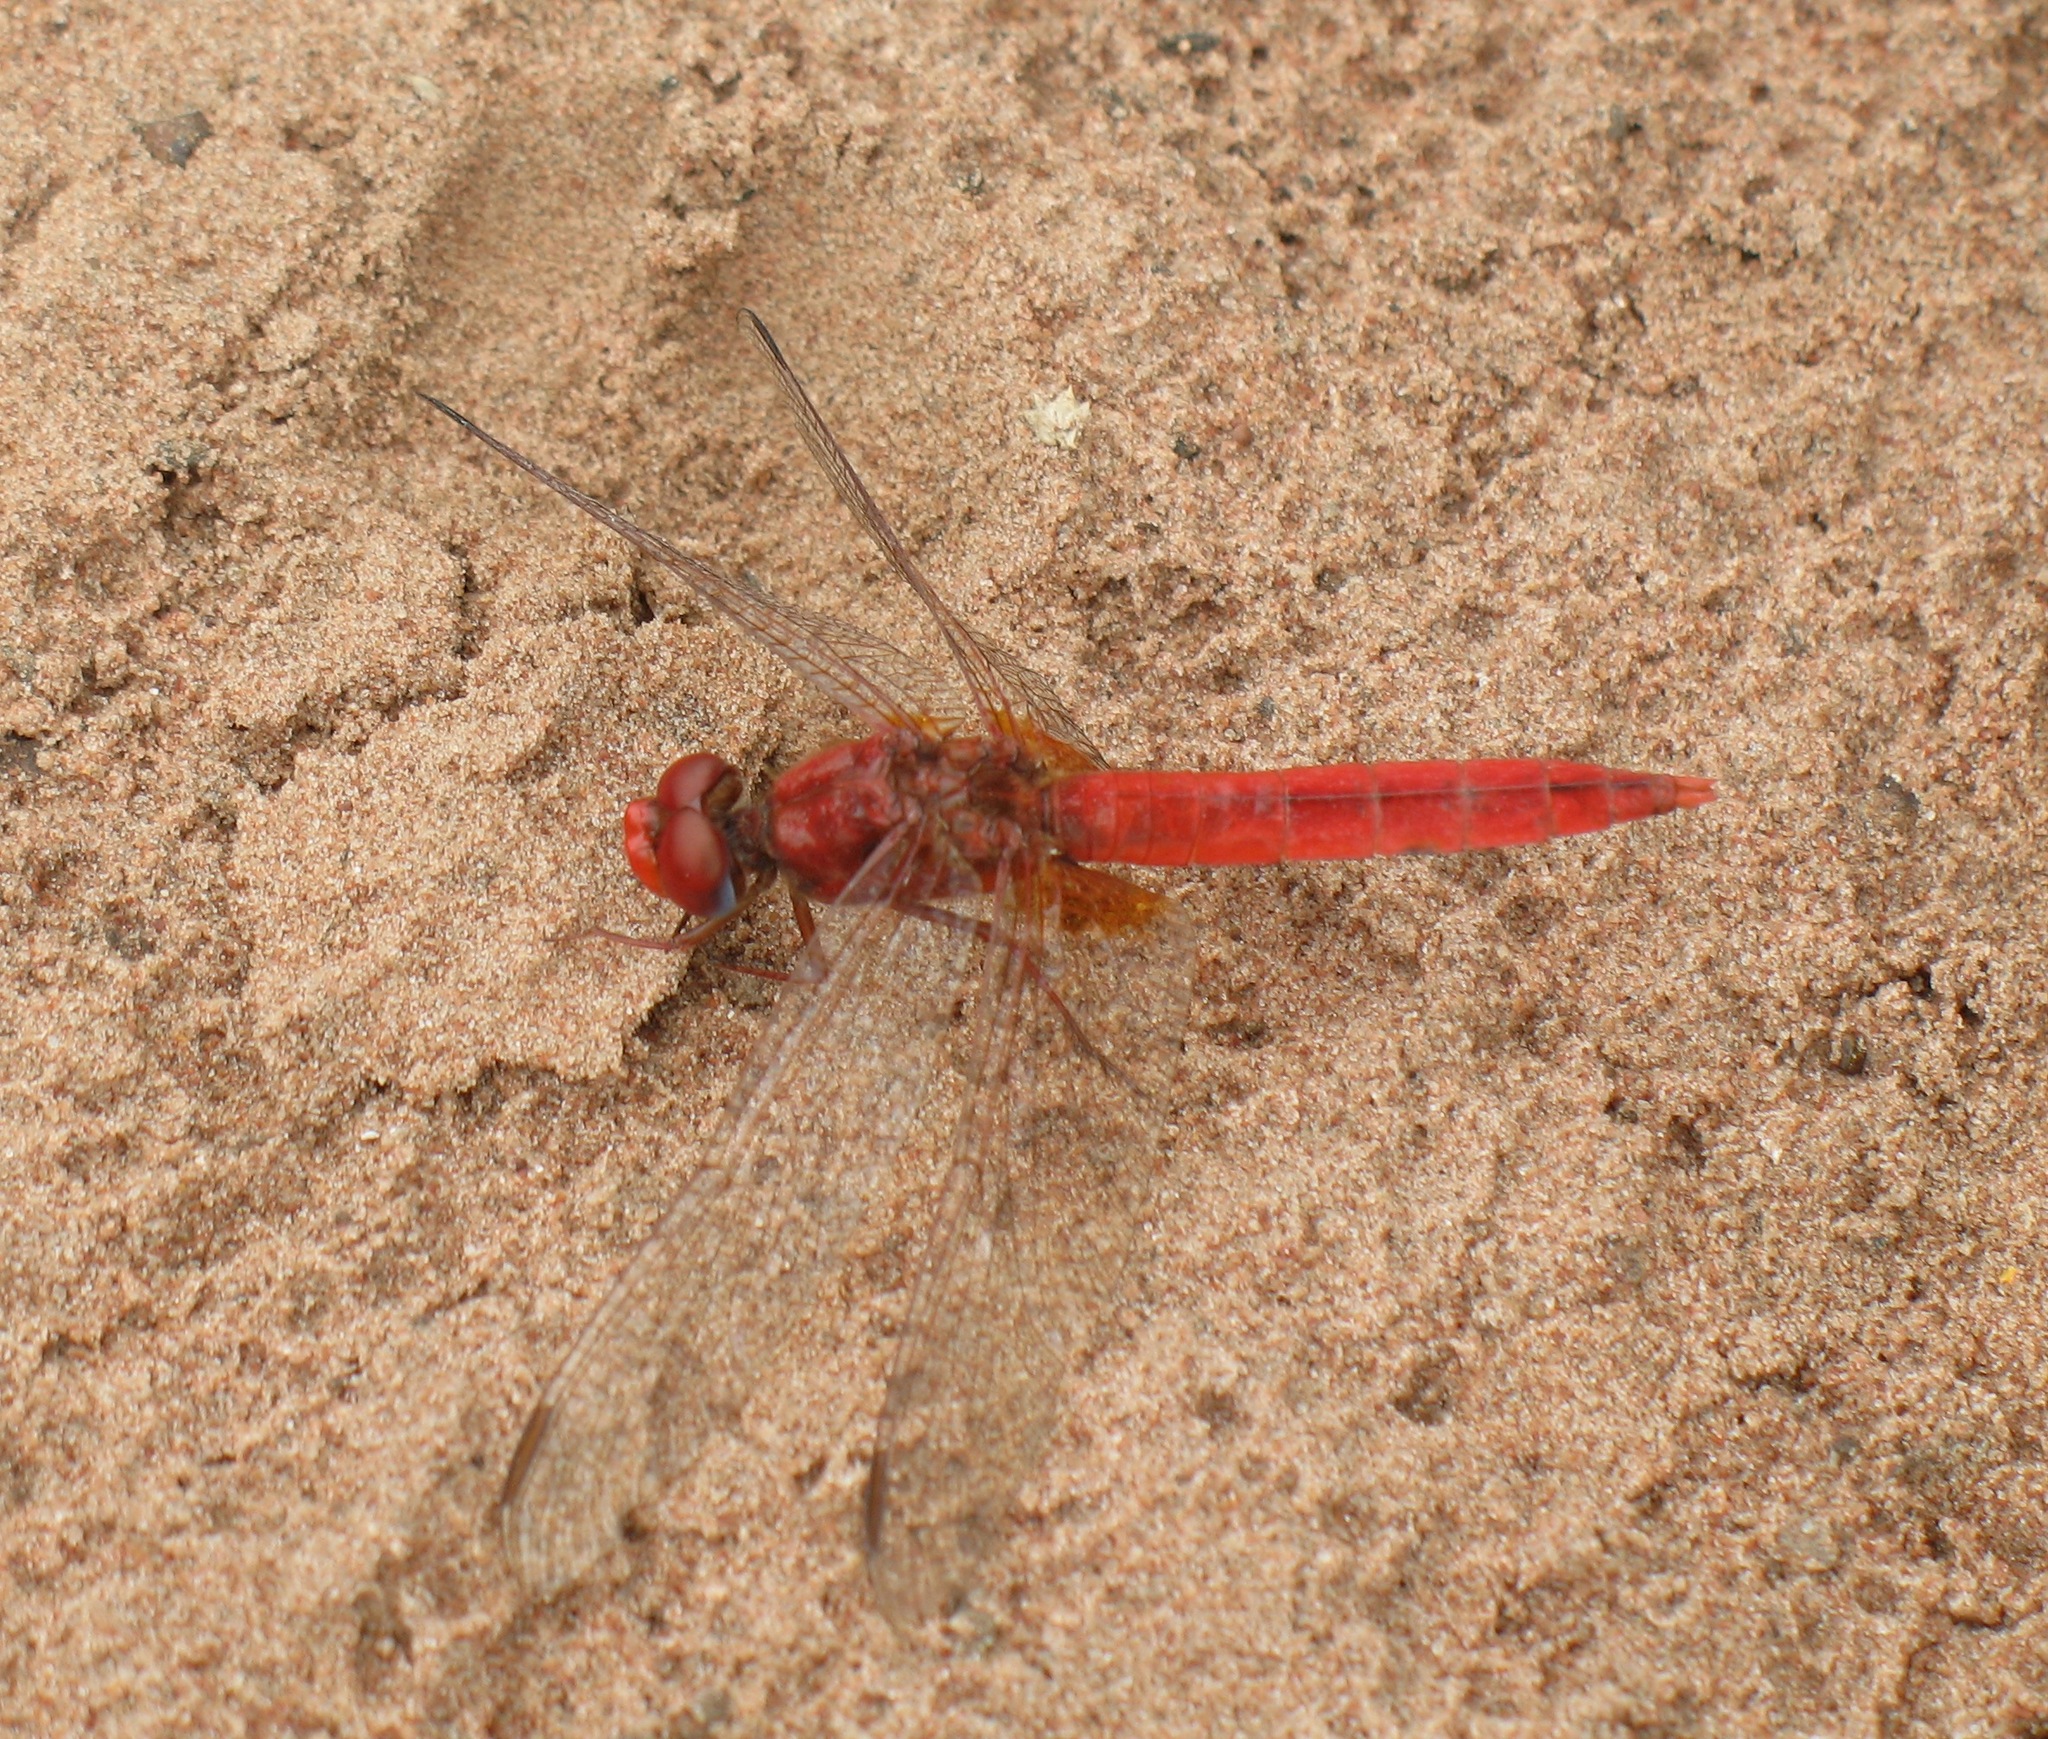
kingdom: Animalia
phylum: Arthropoda
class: Insecta
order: Odonata
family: Libellulidae
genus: Crocothemis
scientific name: Crocothemis erythraea
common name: Scarlet dragonfly
